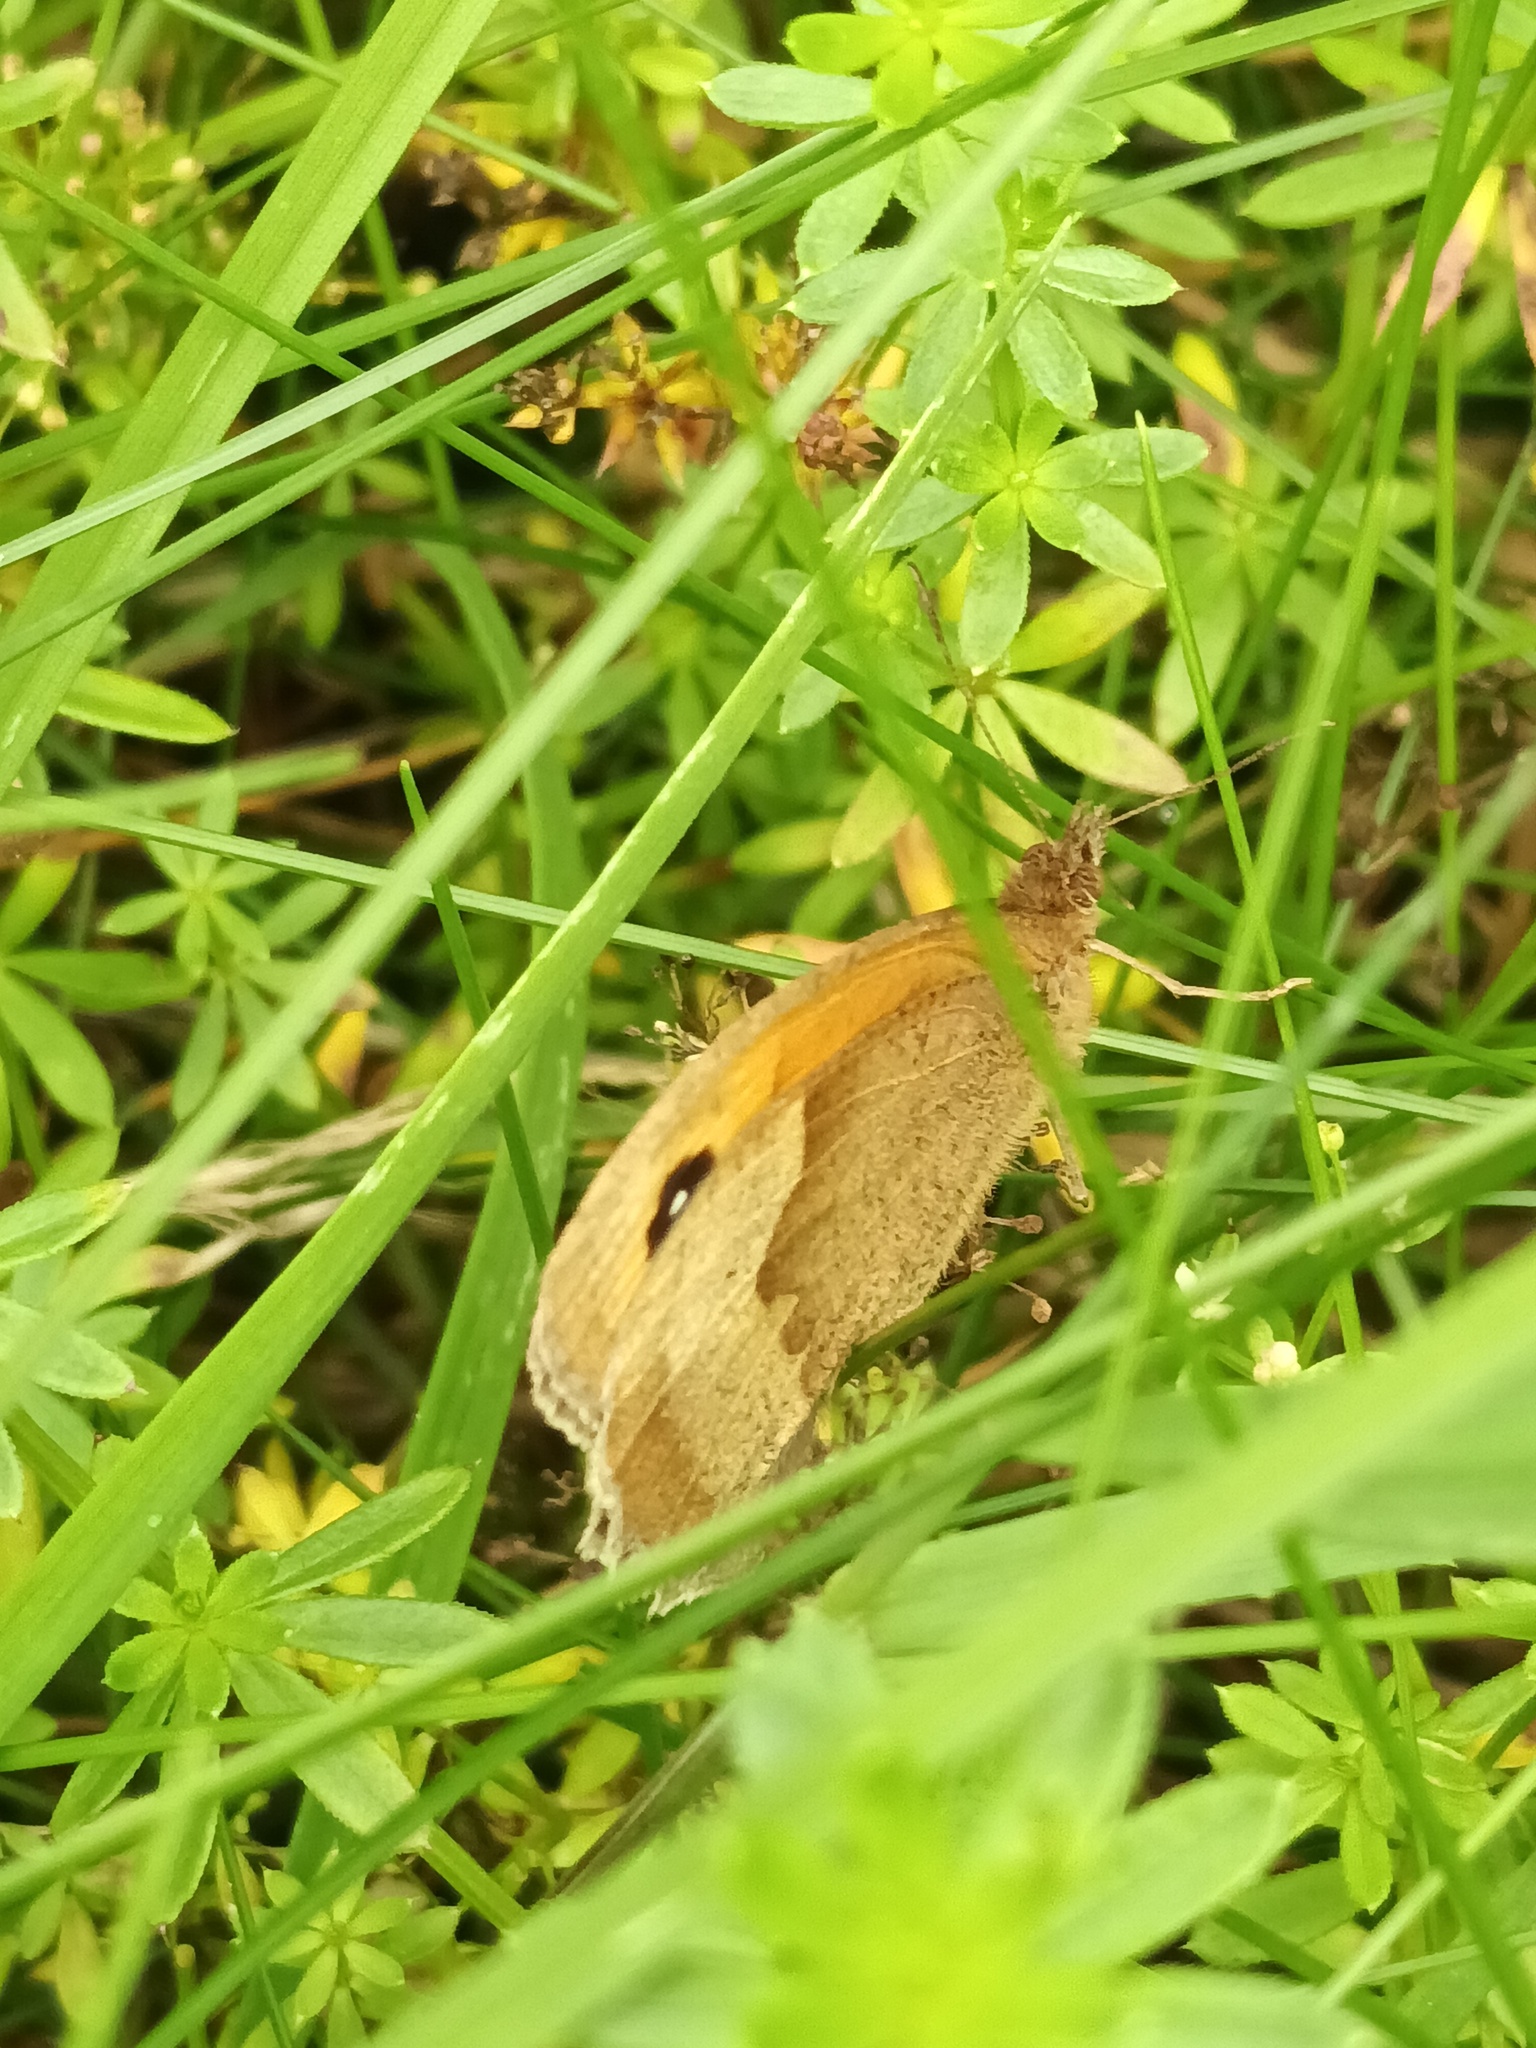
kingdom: Animalia
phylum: Arthropoda
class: Insecta
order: Lepidoptera
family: Nymphalidae
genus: Maniola
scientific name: Maniola jurtina
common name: Meadow brown
